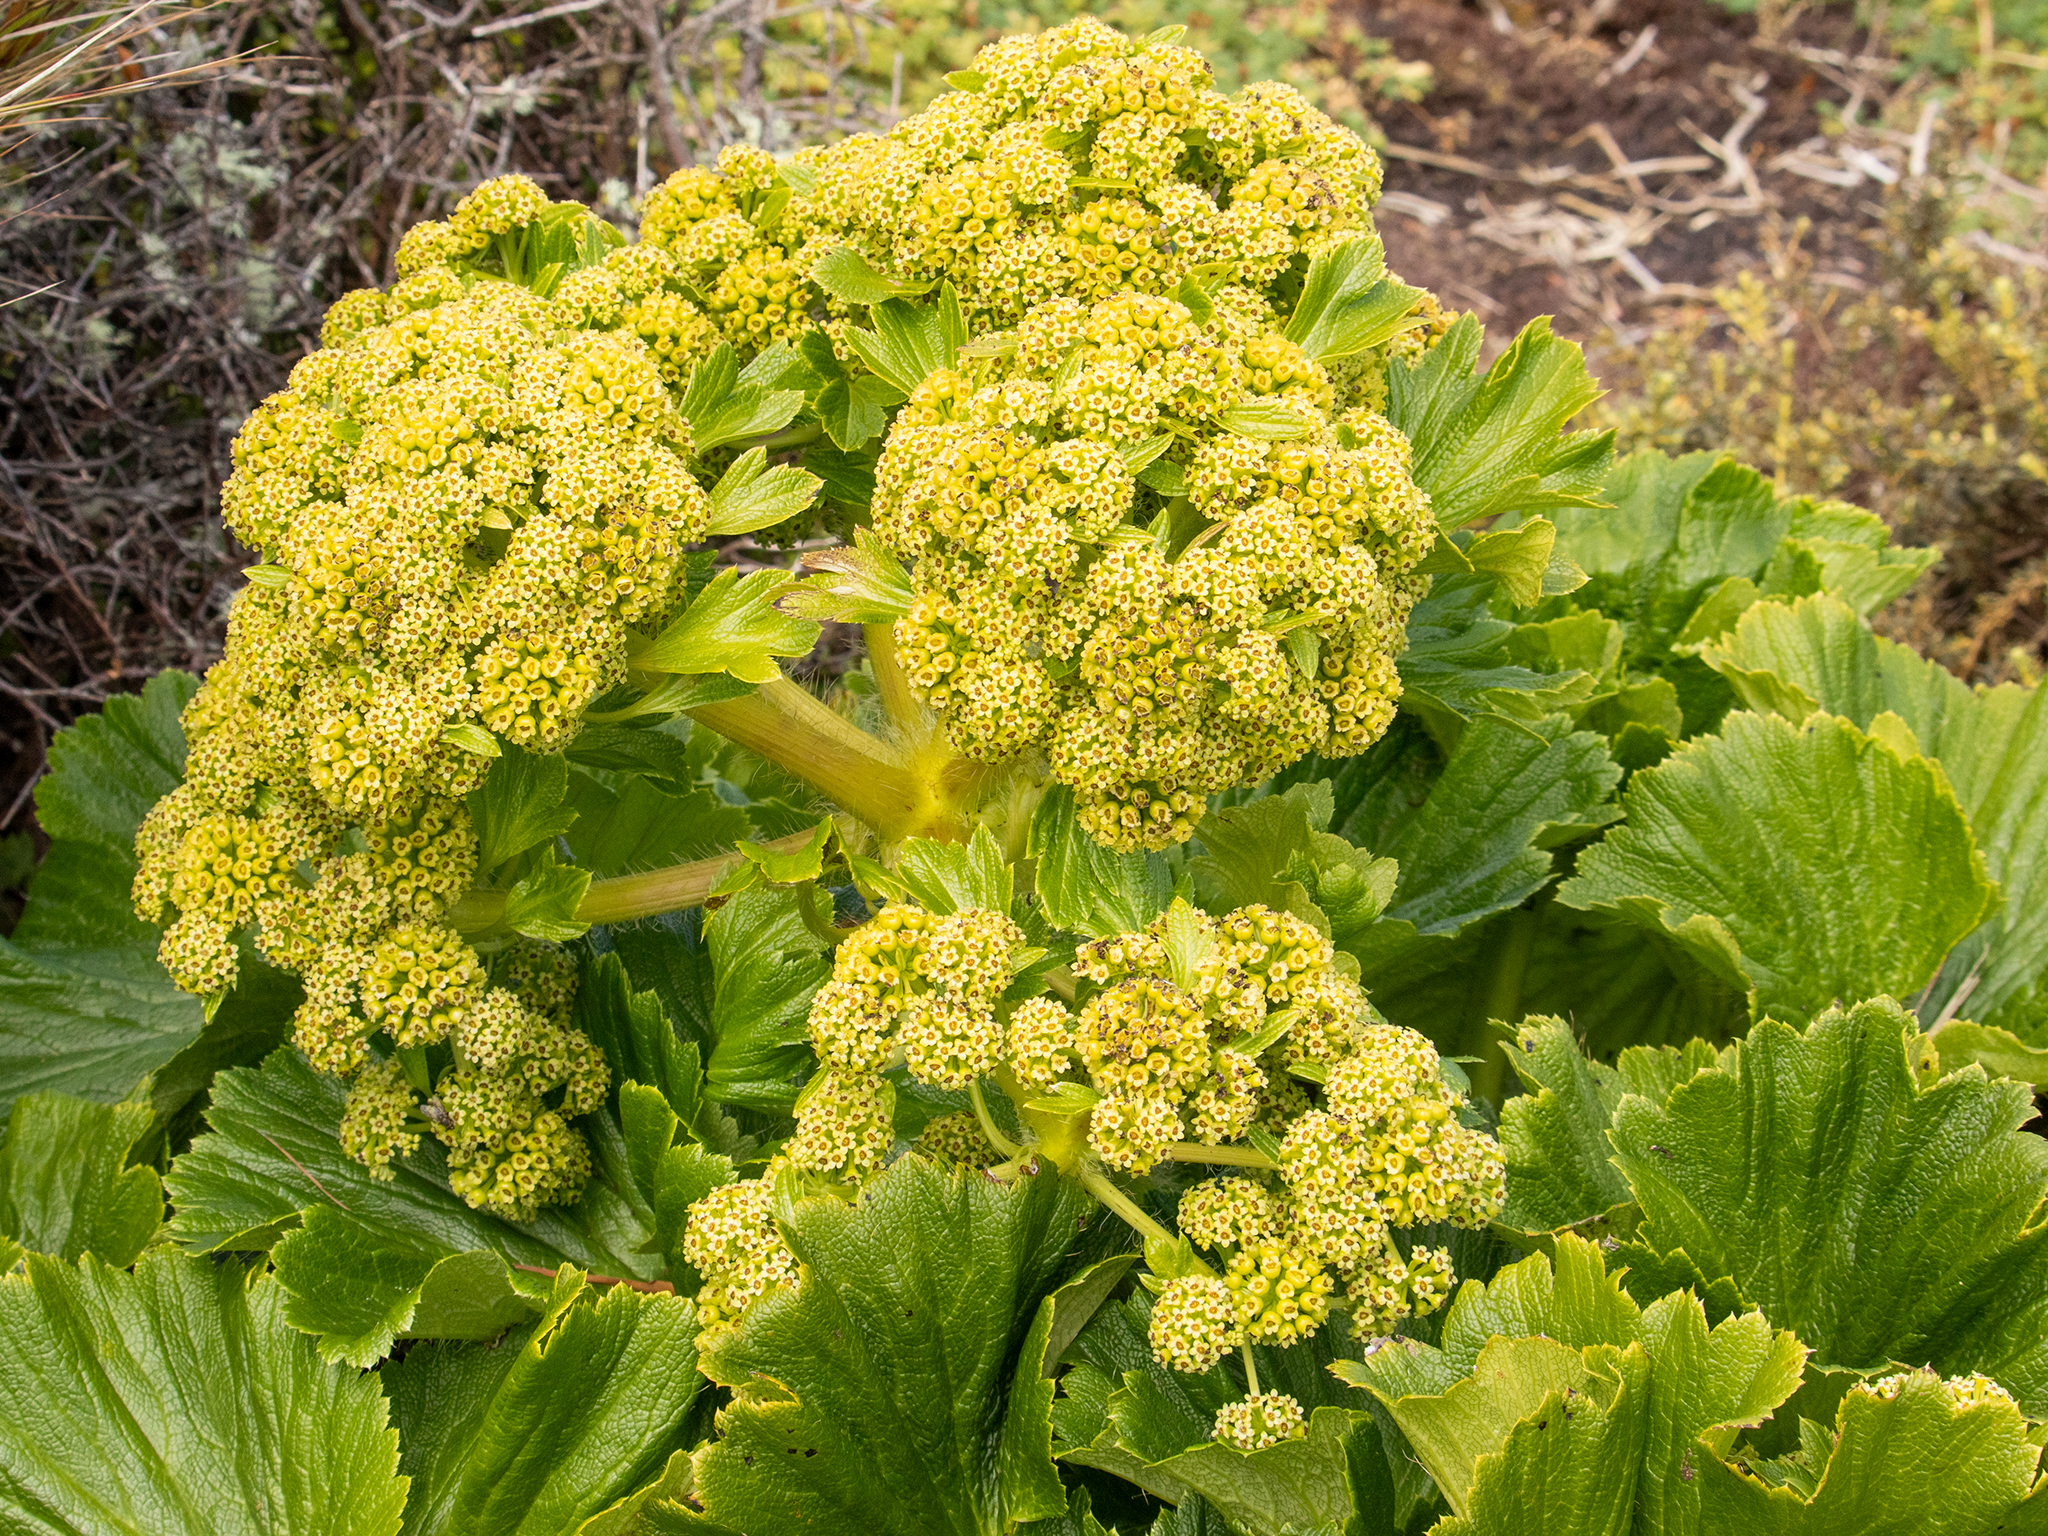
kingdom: Plantae
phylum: Tracheophyta
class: Magnoliopsida
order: Apiales
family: Apiaceae
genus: Azorella
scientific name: Azorella polaris
